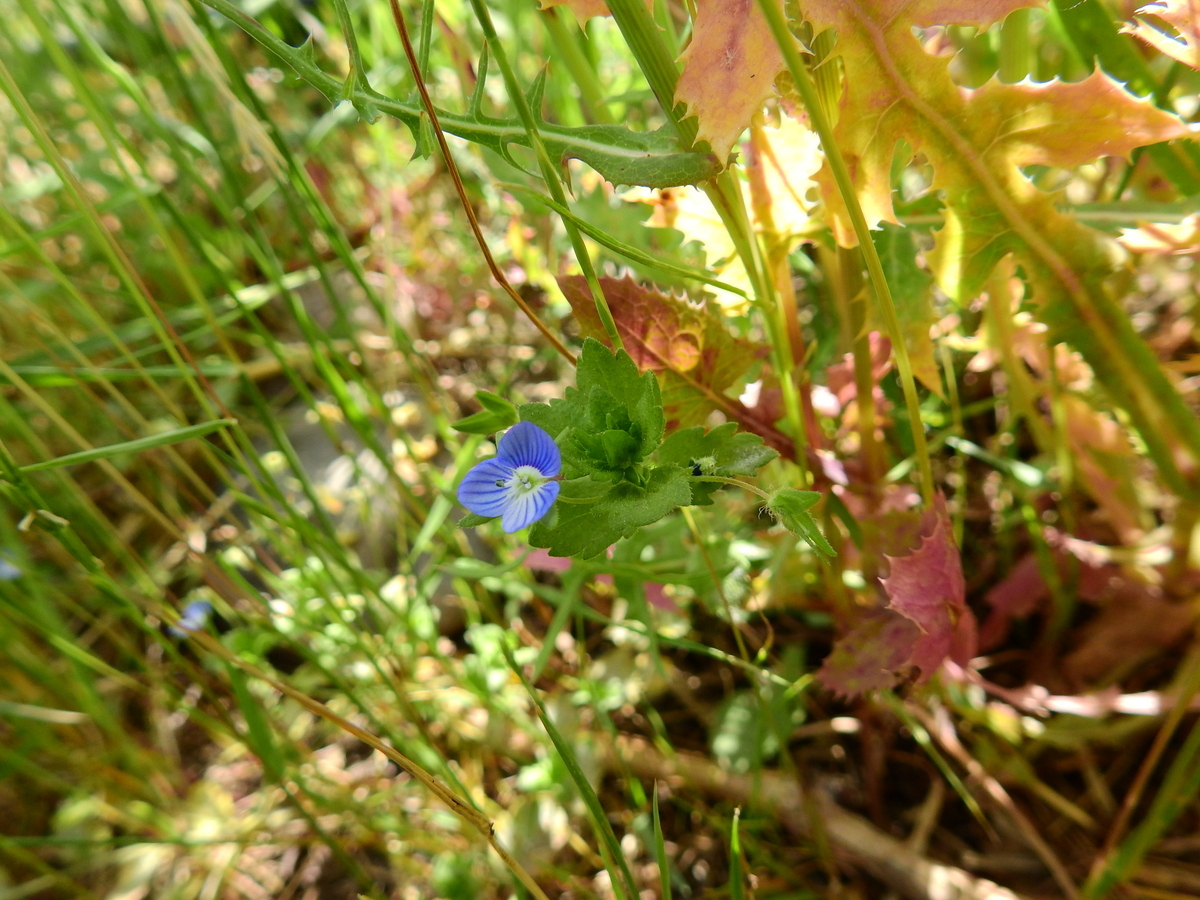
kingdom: Plantae
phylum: Tracheophyta
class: Magnoliopsida
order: Lamiales
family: Plantaginaceae
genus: Veronica
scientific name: Veronica persica
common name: Common field-speedwell
